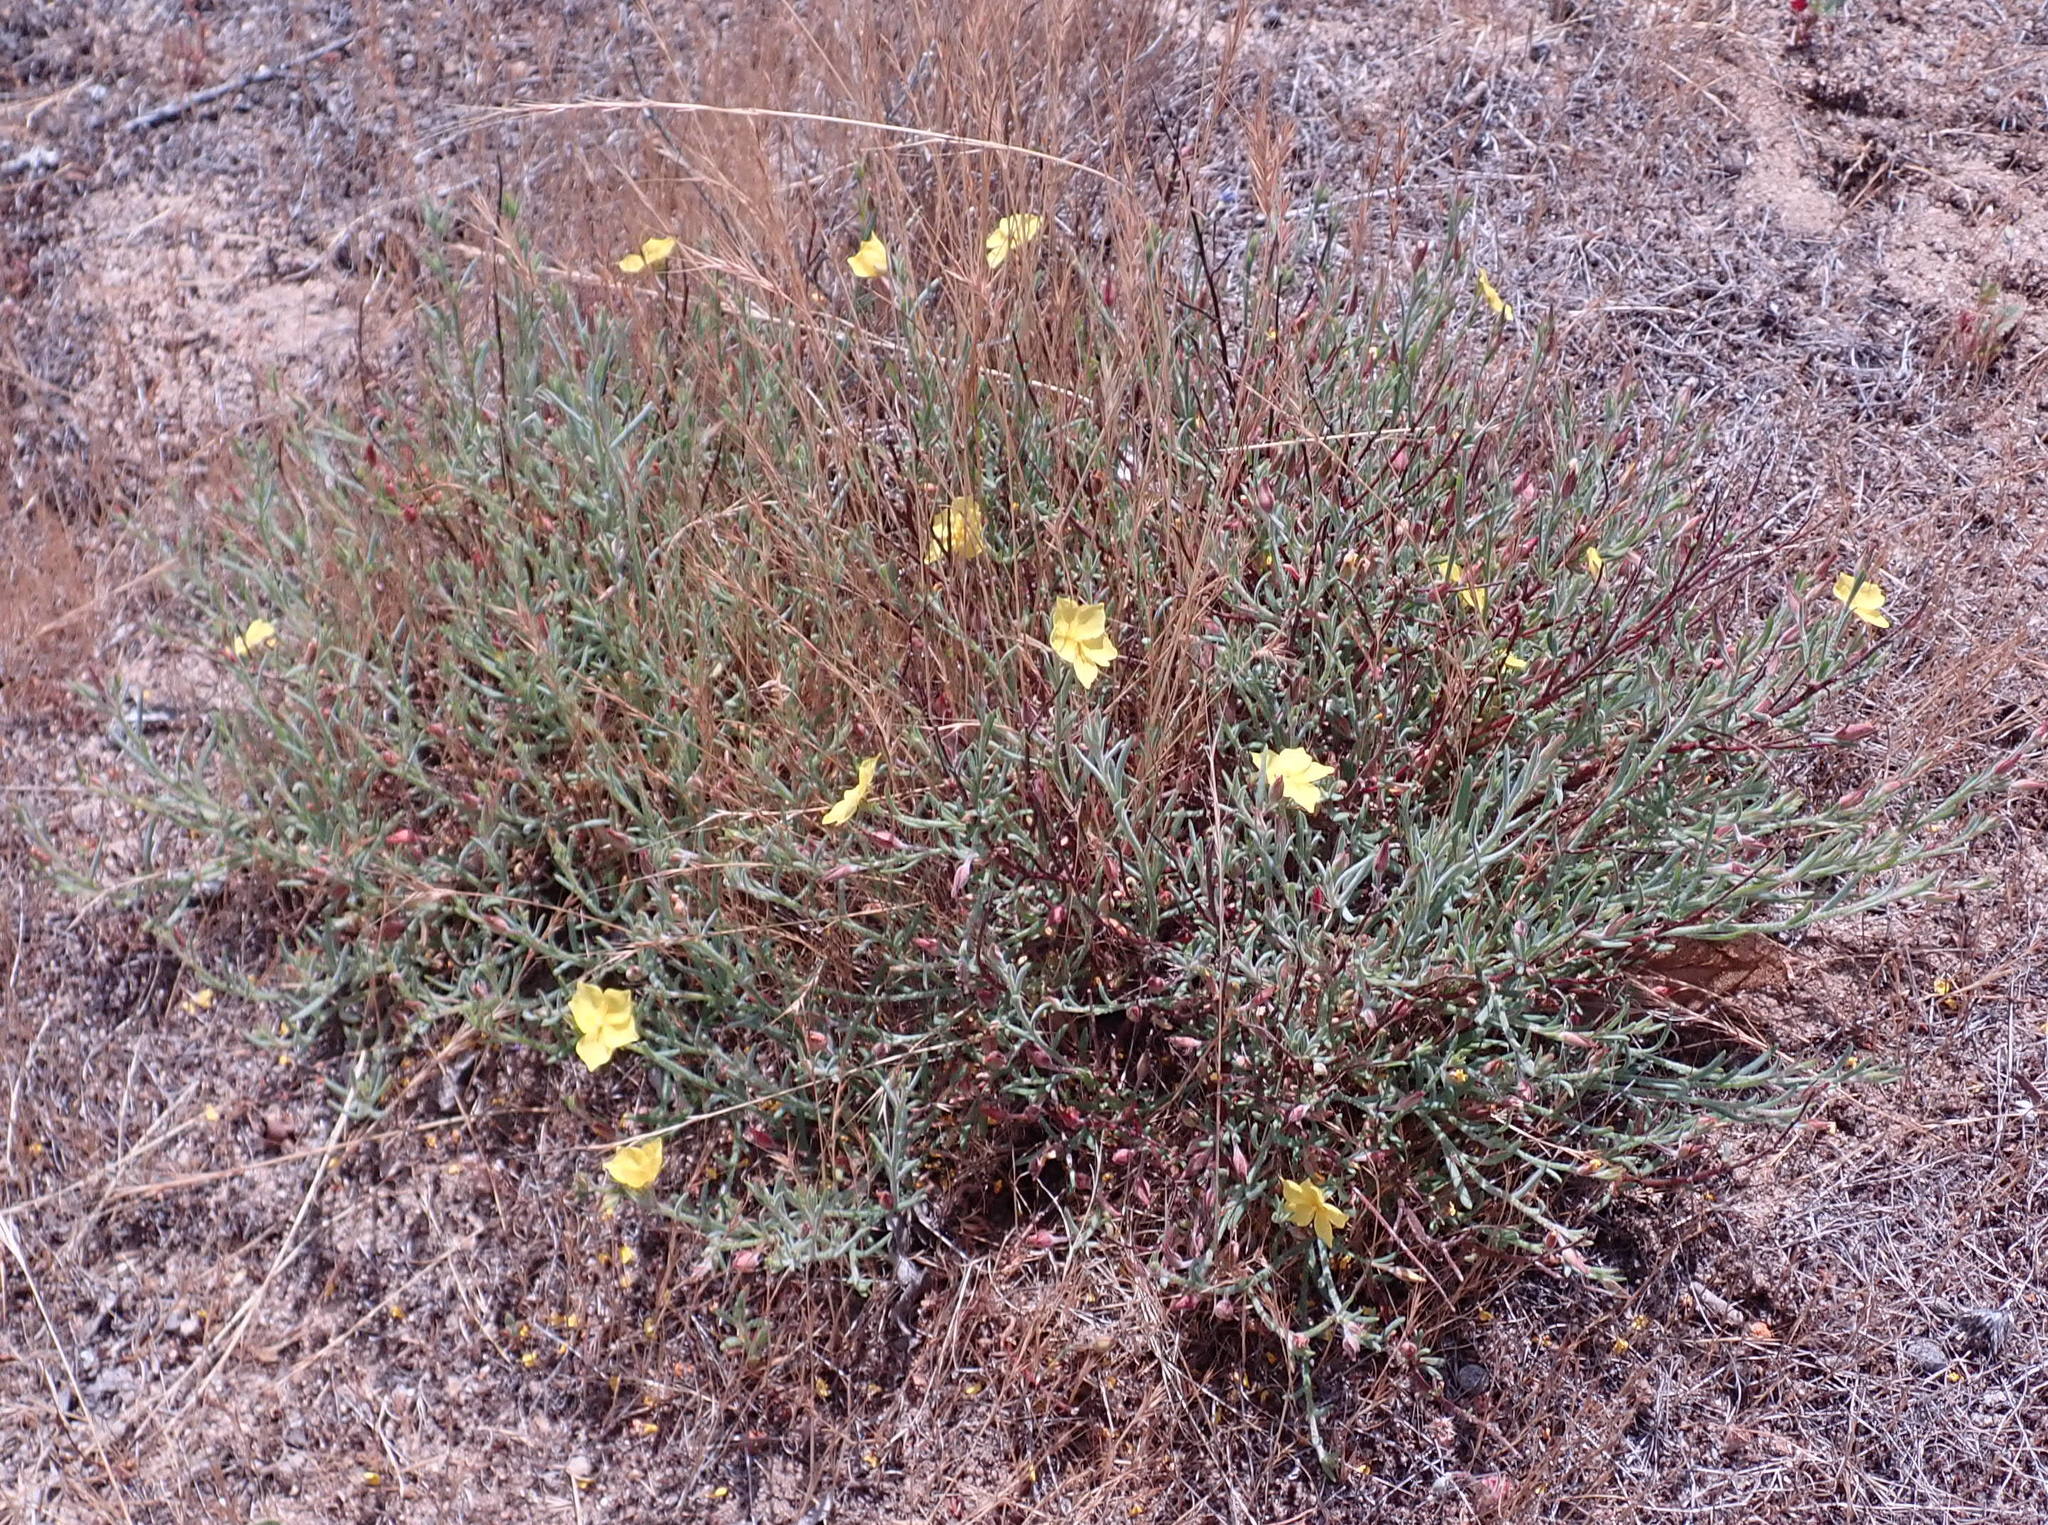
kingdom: Plantae
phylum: Tracheophyta
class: Magnoliopsida
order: Malvales
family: Cistaceae
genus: Crocanthemum
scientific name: Crocanthemum scoparium
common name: Broom-rose
